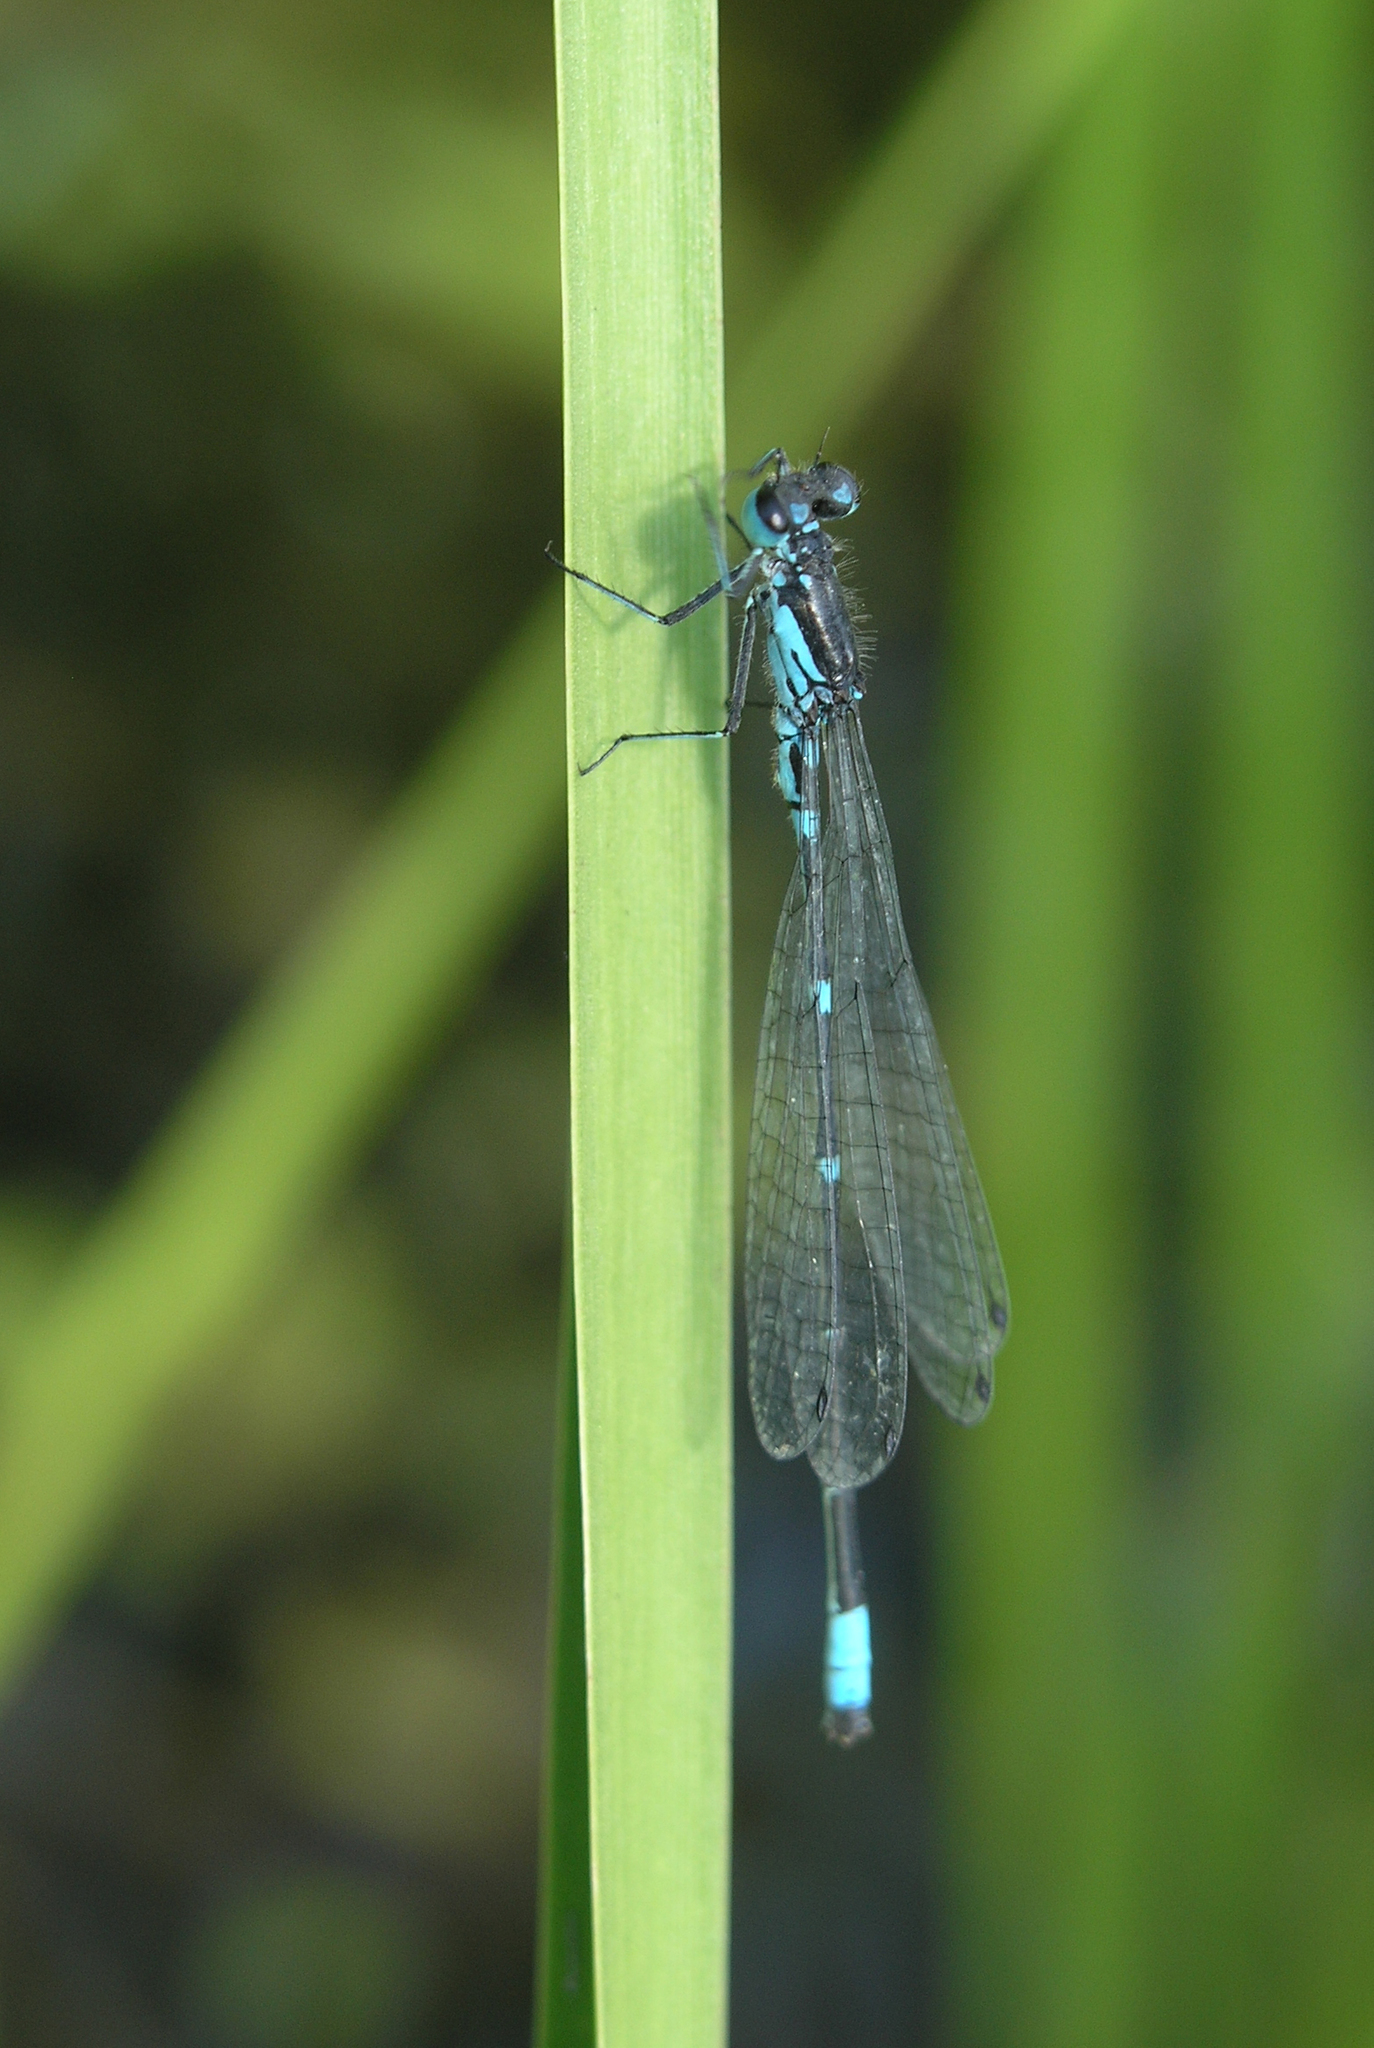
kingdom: Animalia
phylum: Arthropoda
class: Insecta
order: Odonata
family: Coenagrionidae
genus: Coenagrion
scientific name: Coenagrion pulchellum
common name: Variable bluet
